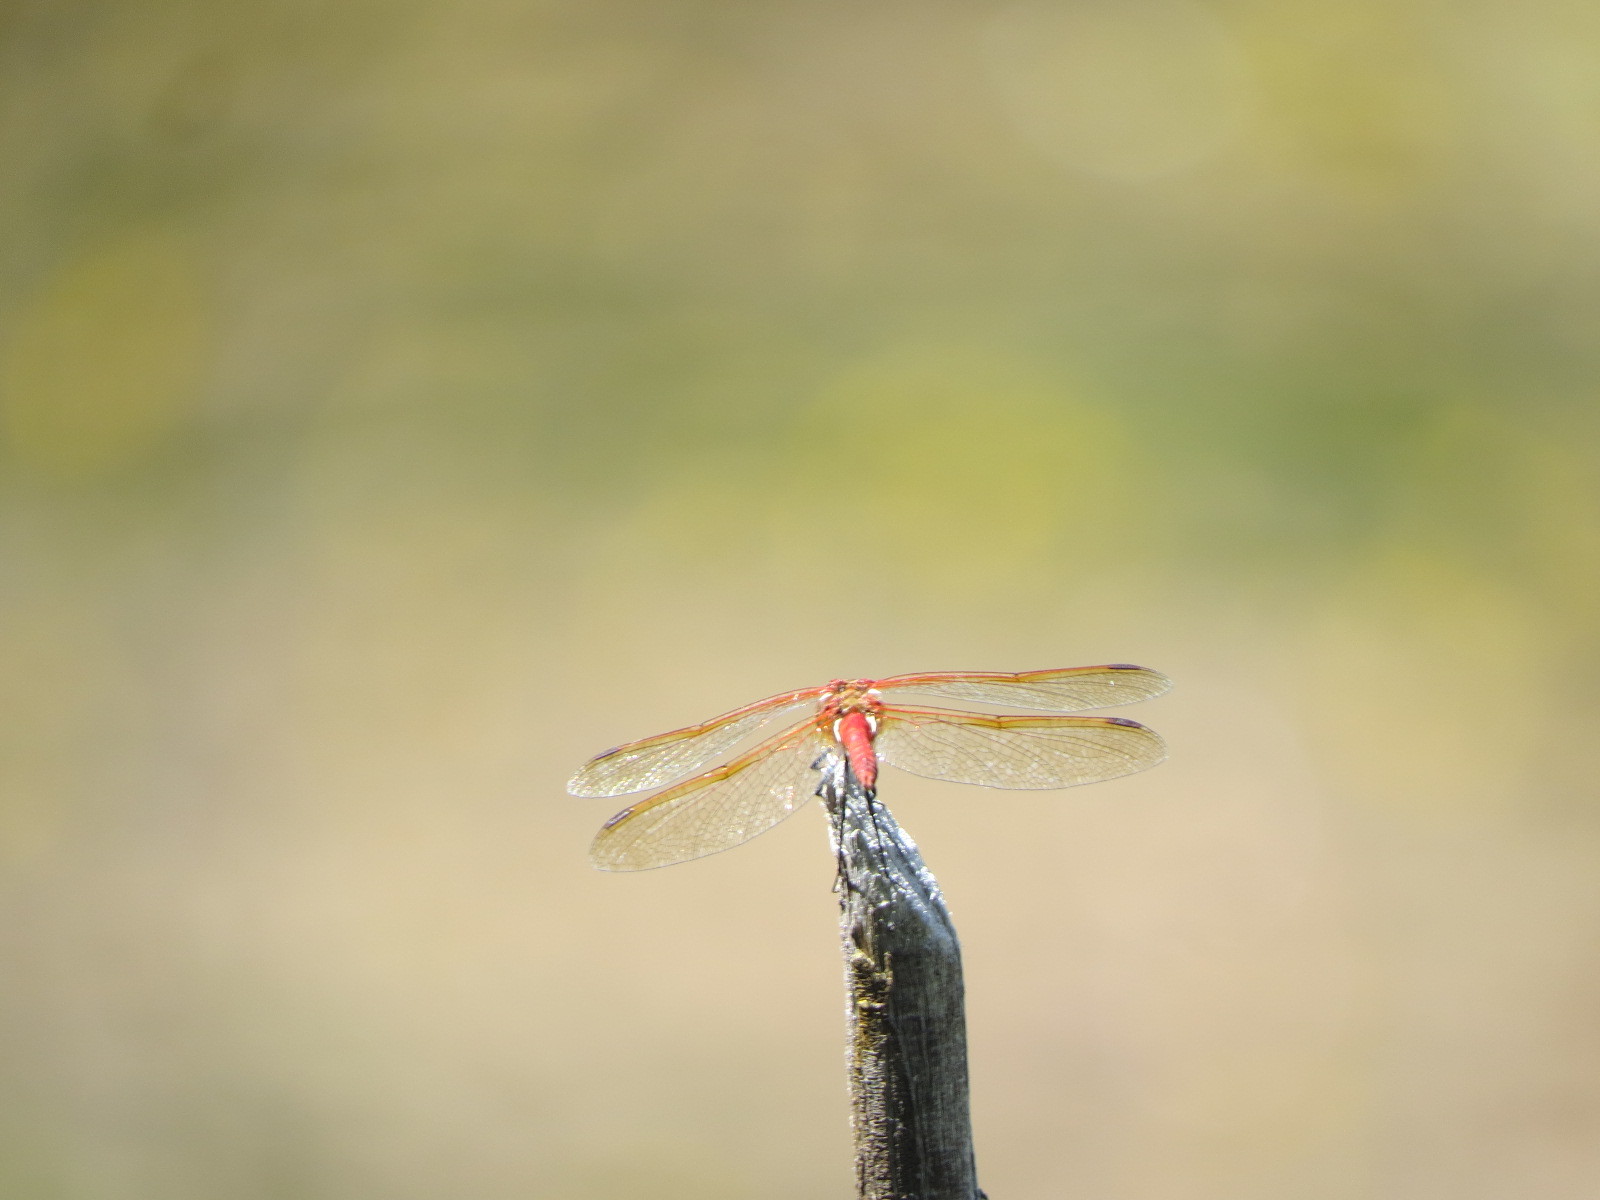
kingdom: Animalia
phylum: Arthropoda
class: Insecta
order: Odonata
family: Libellulidae
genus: Sympetrum
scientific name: Sympetrum madidum
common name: Red-veined meadowhawk
